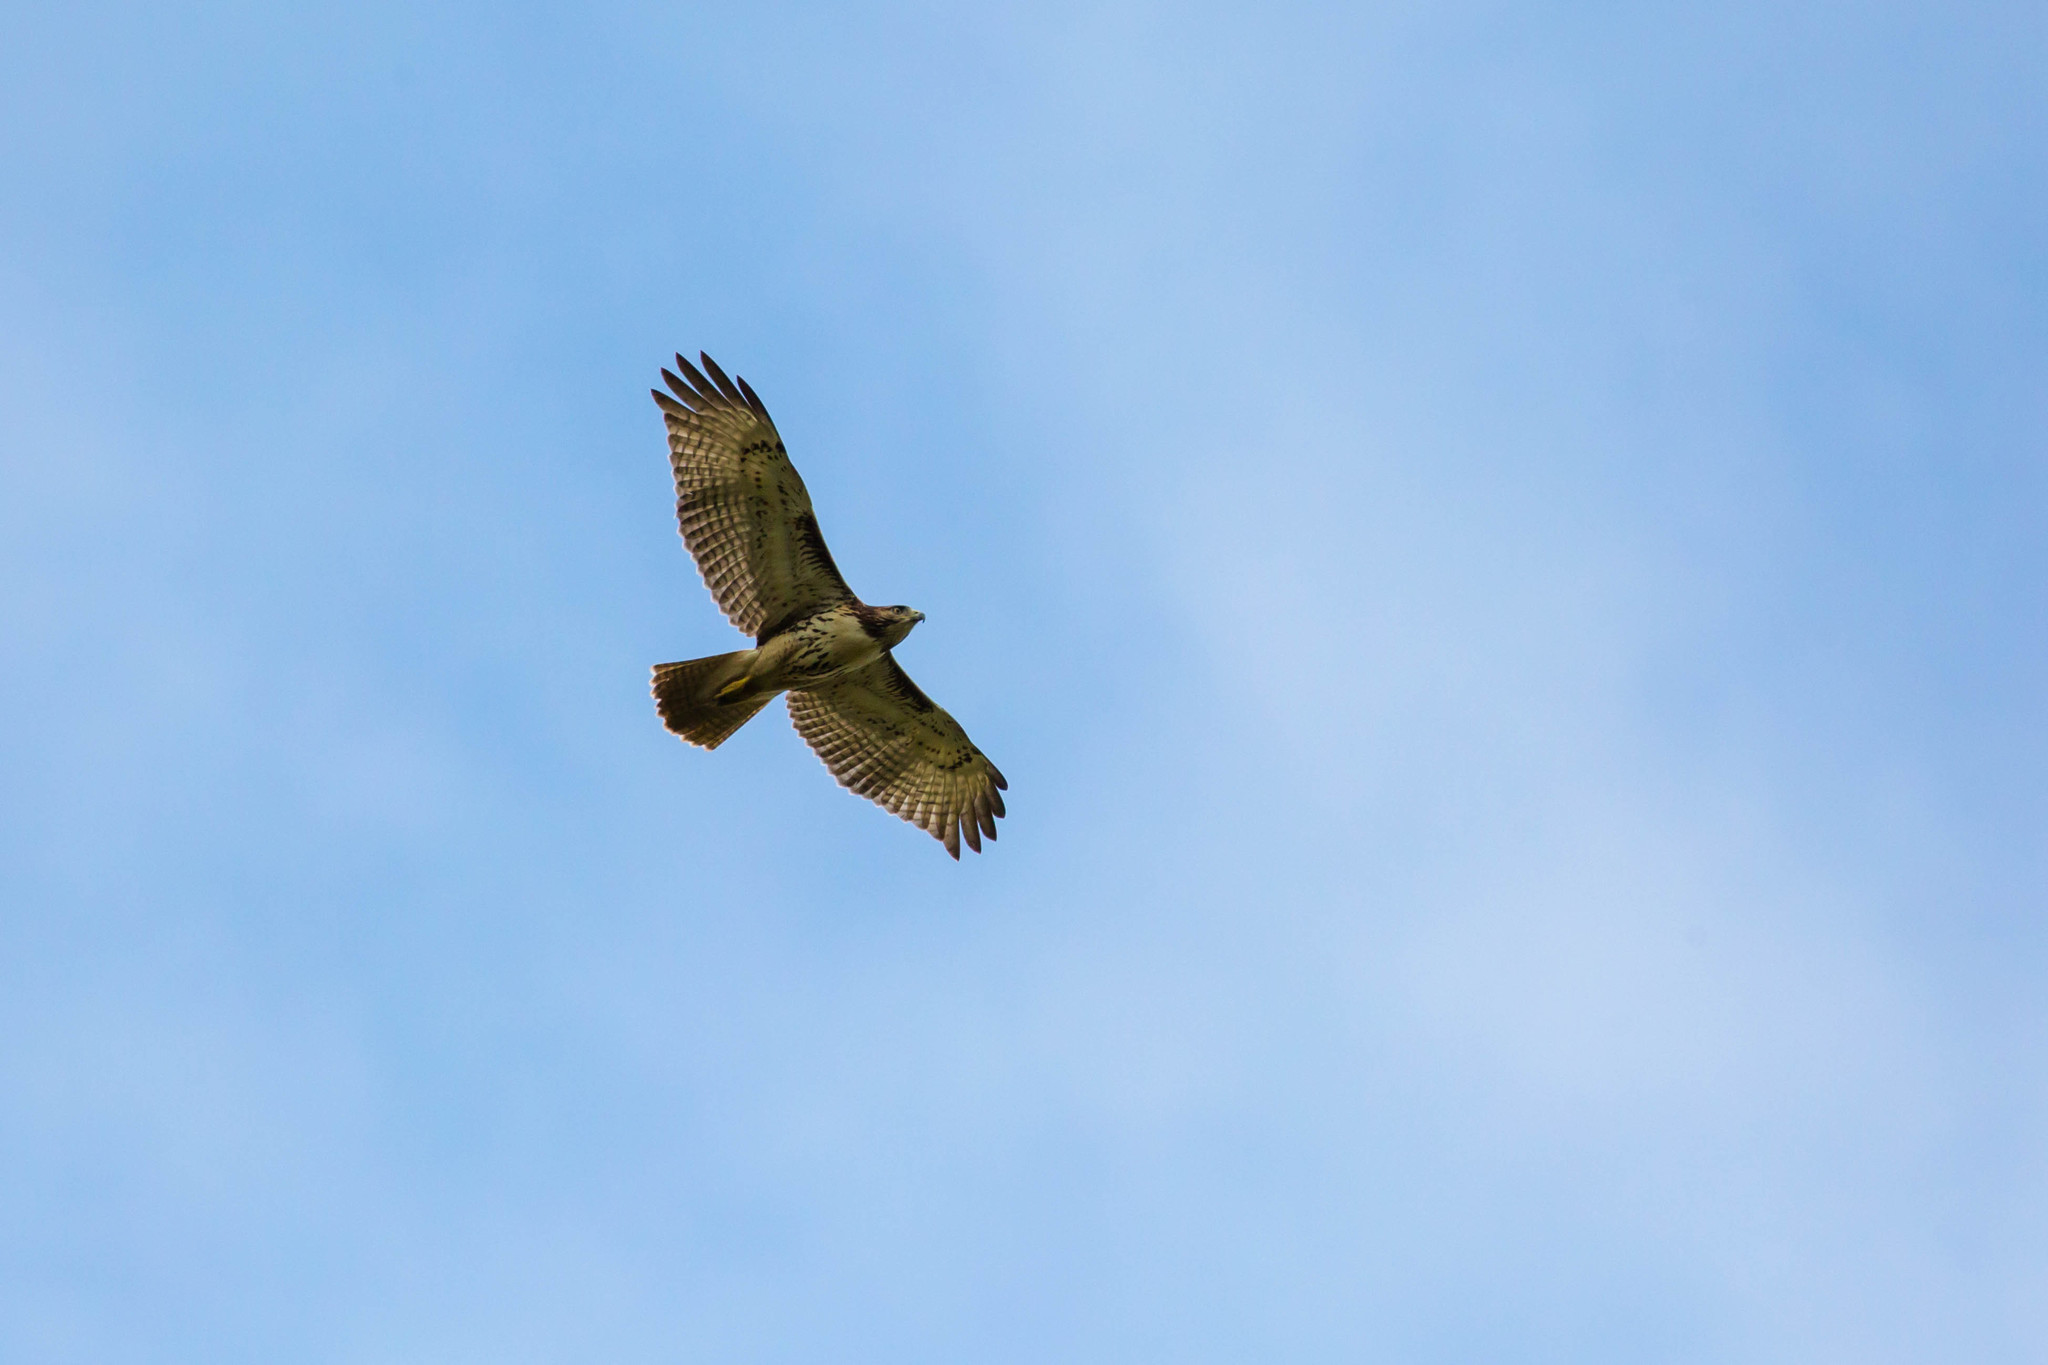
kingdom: Animalia
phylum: Chordata
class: Aves
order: Accipitriformes
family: Accipitridae
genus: Buteo
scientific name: Buteo jamaicensis
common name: Red-tailed hawk
